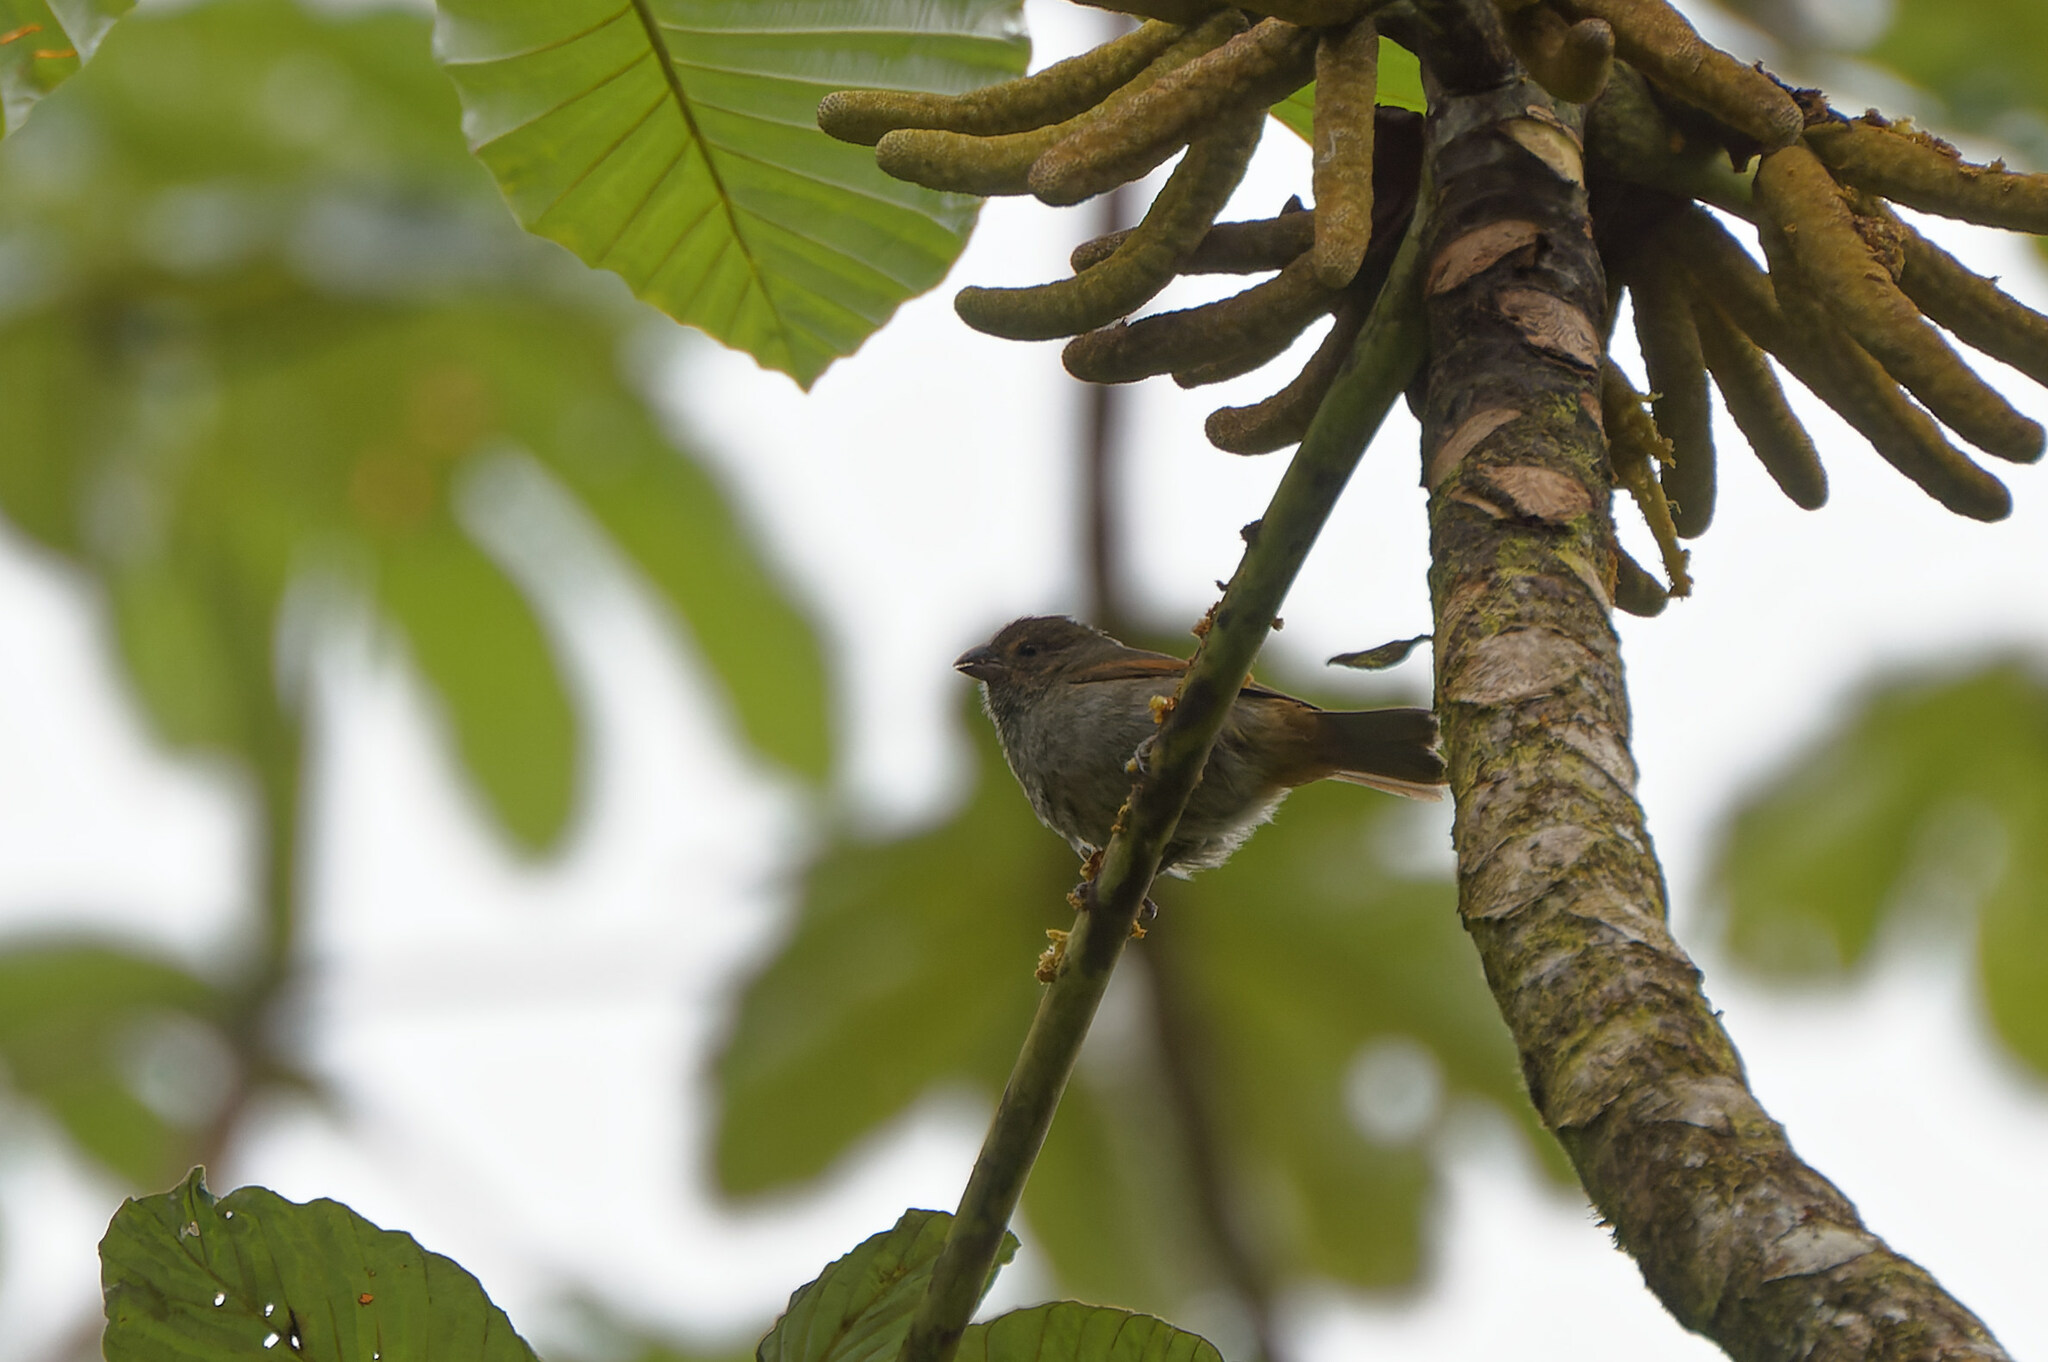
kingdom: Animalia
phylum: Chordata
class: Aves
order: Passeriformes
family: Thraupidae
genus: Loxigilla
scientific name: Loxigilla noctis
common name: Lesser antillean bullfinch
